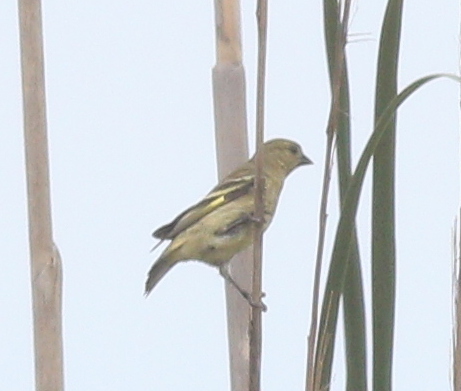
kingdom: Animalia
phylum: Chordata
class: Aves
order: Passeriformes
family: Fringillidae
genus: Spinus
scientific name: Spinus magellanicus
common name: Hooded siskin
